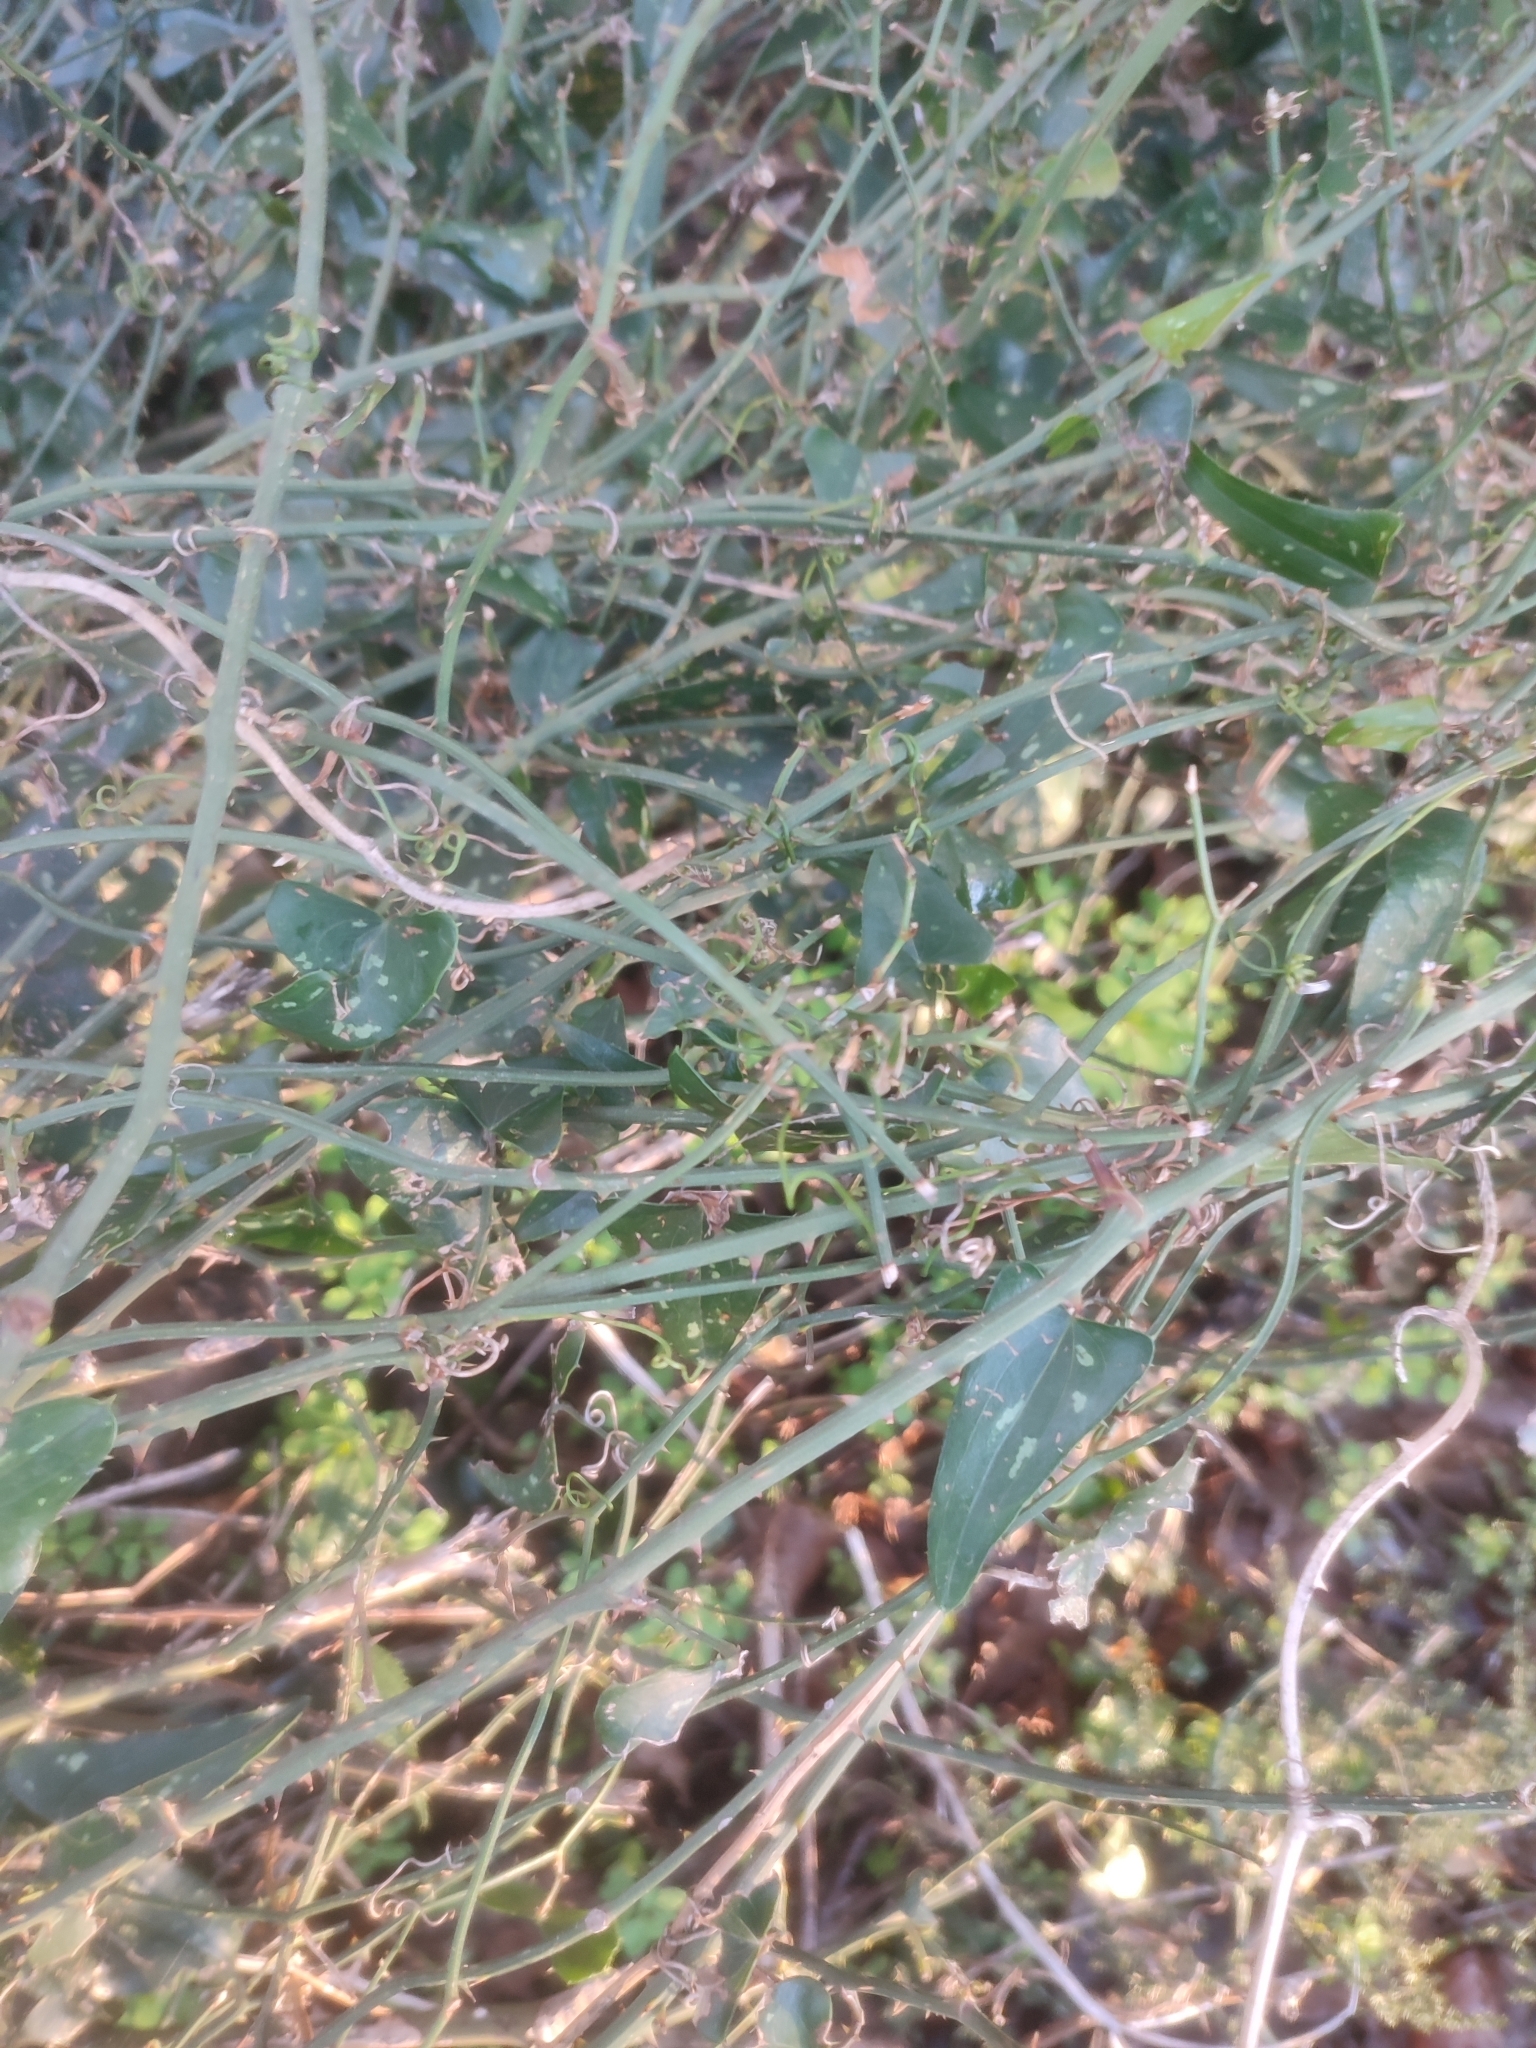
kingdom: Plantae
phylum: Tracheophyta
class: Liliopsida
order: Liliales
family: Smilacaceae
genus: Smilax
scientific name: Smilax aspera
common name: Common smilax
